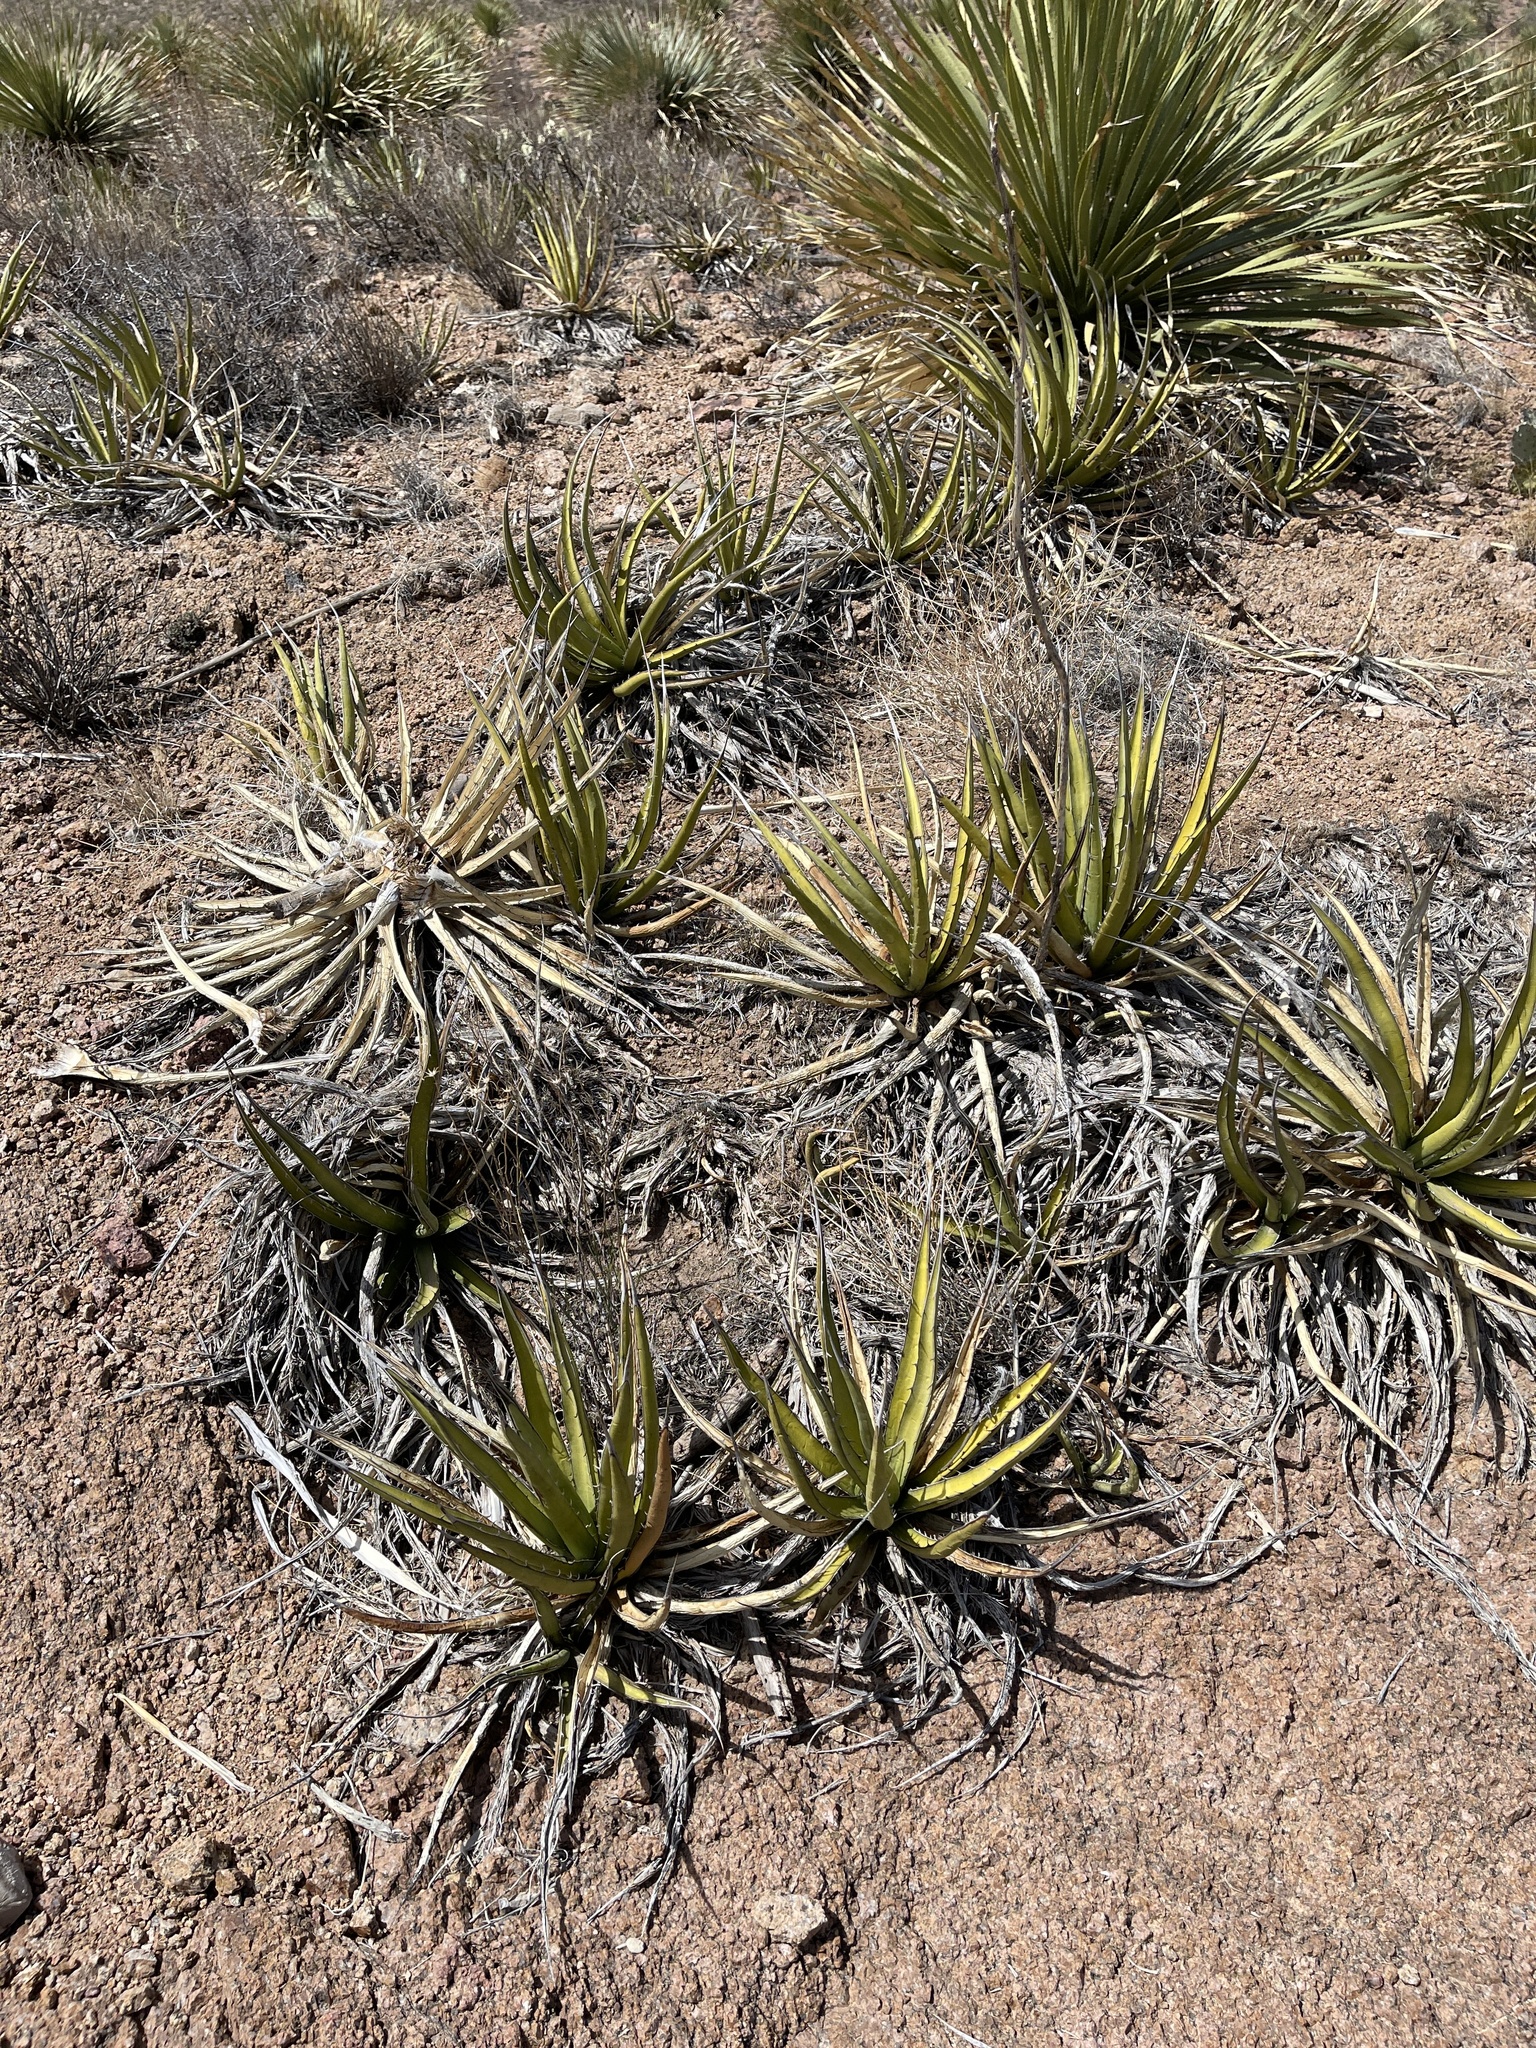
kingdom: Plantae
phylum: Tracheophyta
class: Liliopsida
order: Asparagales
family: Asparagaceae
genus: Agave
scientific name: Agave lechuguilla
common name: Lecheguilla agave
